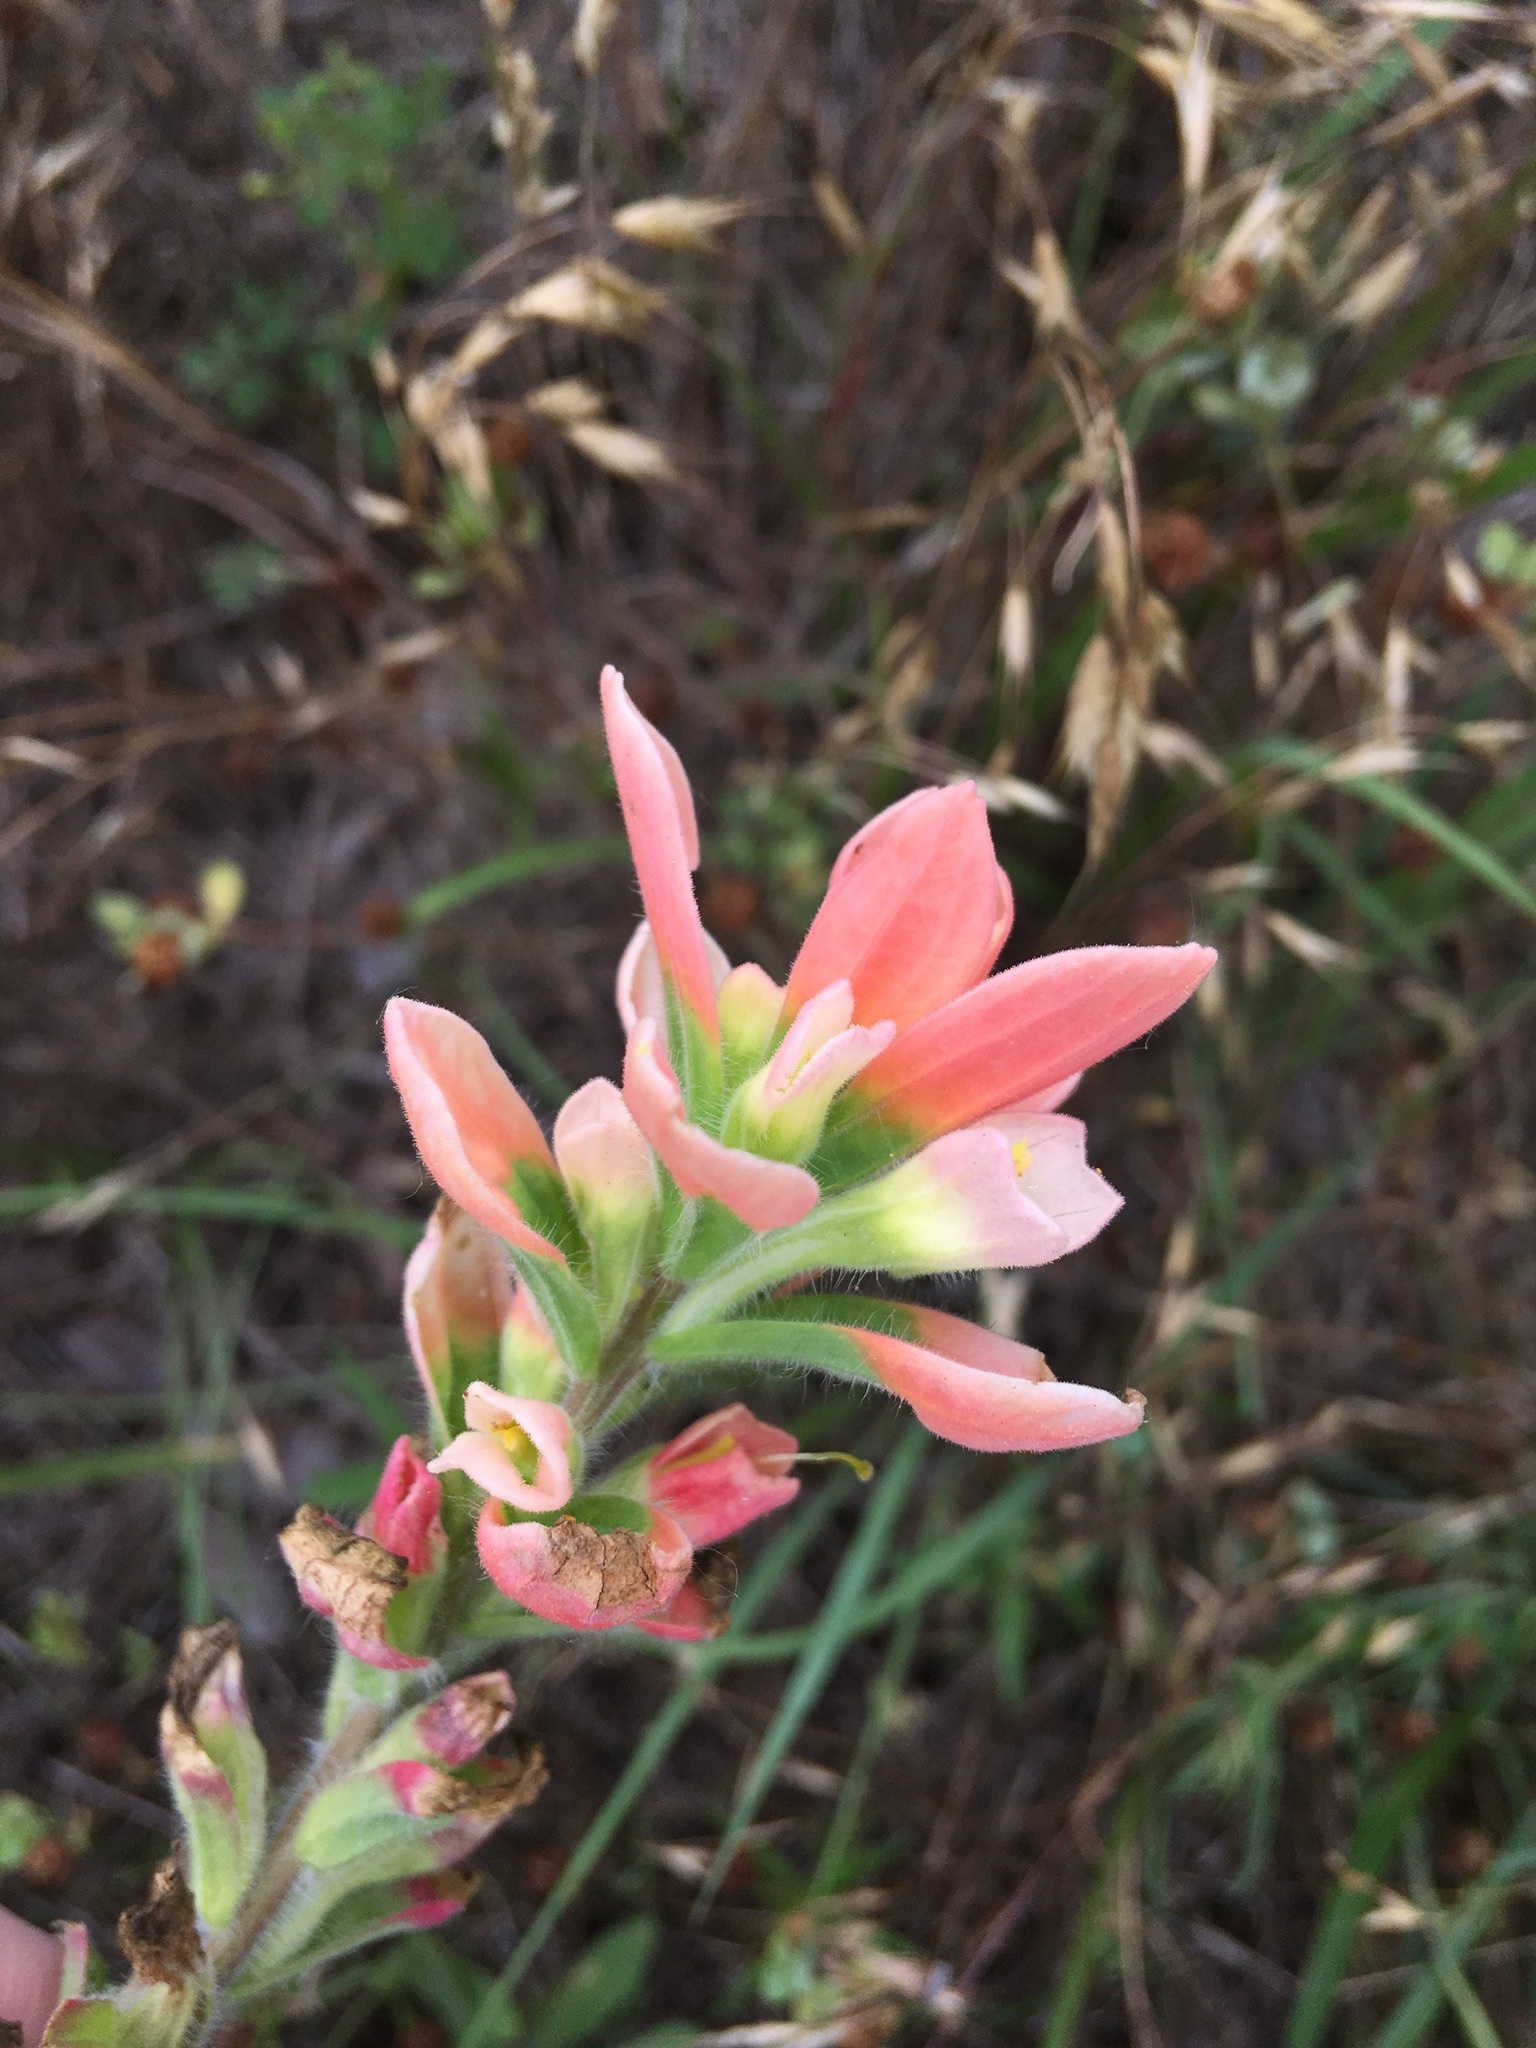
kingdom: Plantae
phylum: Tracheophyta
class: Magnoliopsida
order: Lamiales
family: Orobanchaceae
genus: Castilleja
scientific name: Castilleja indivisa
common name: Texas paintbrush
